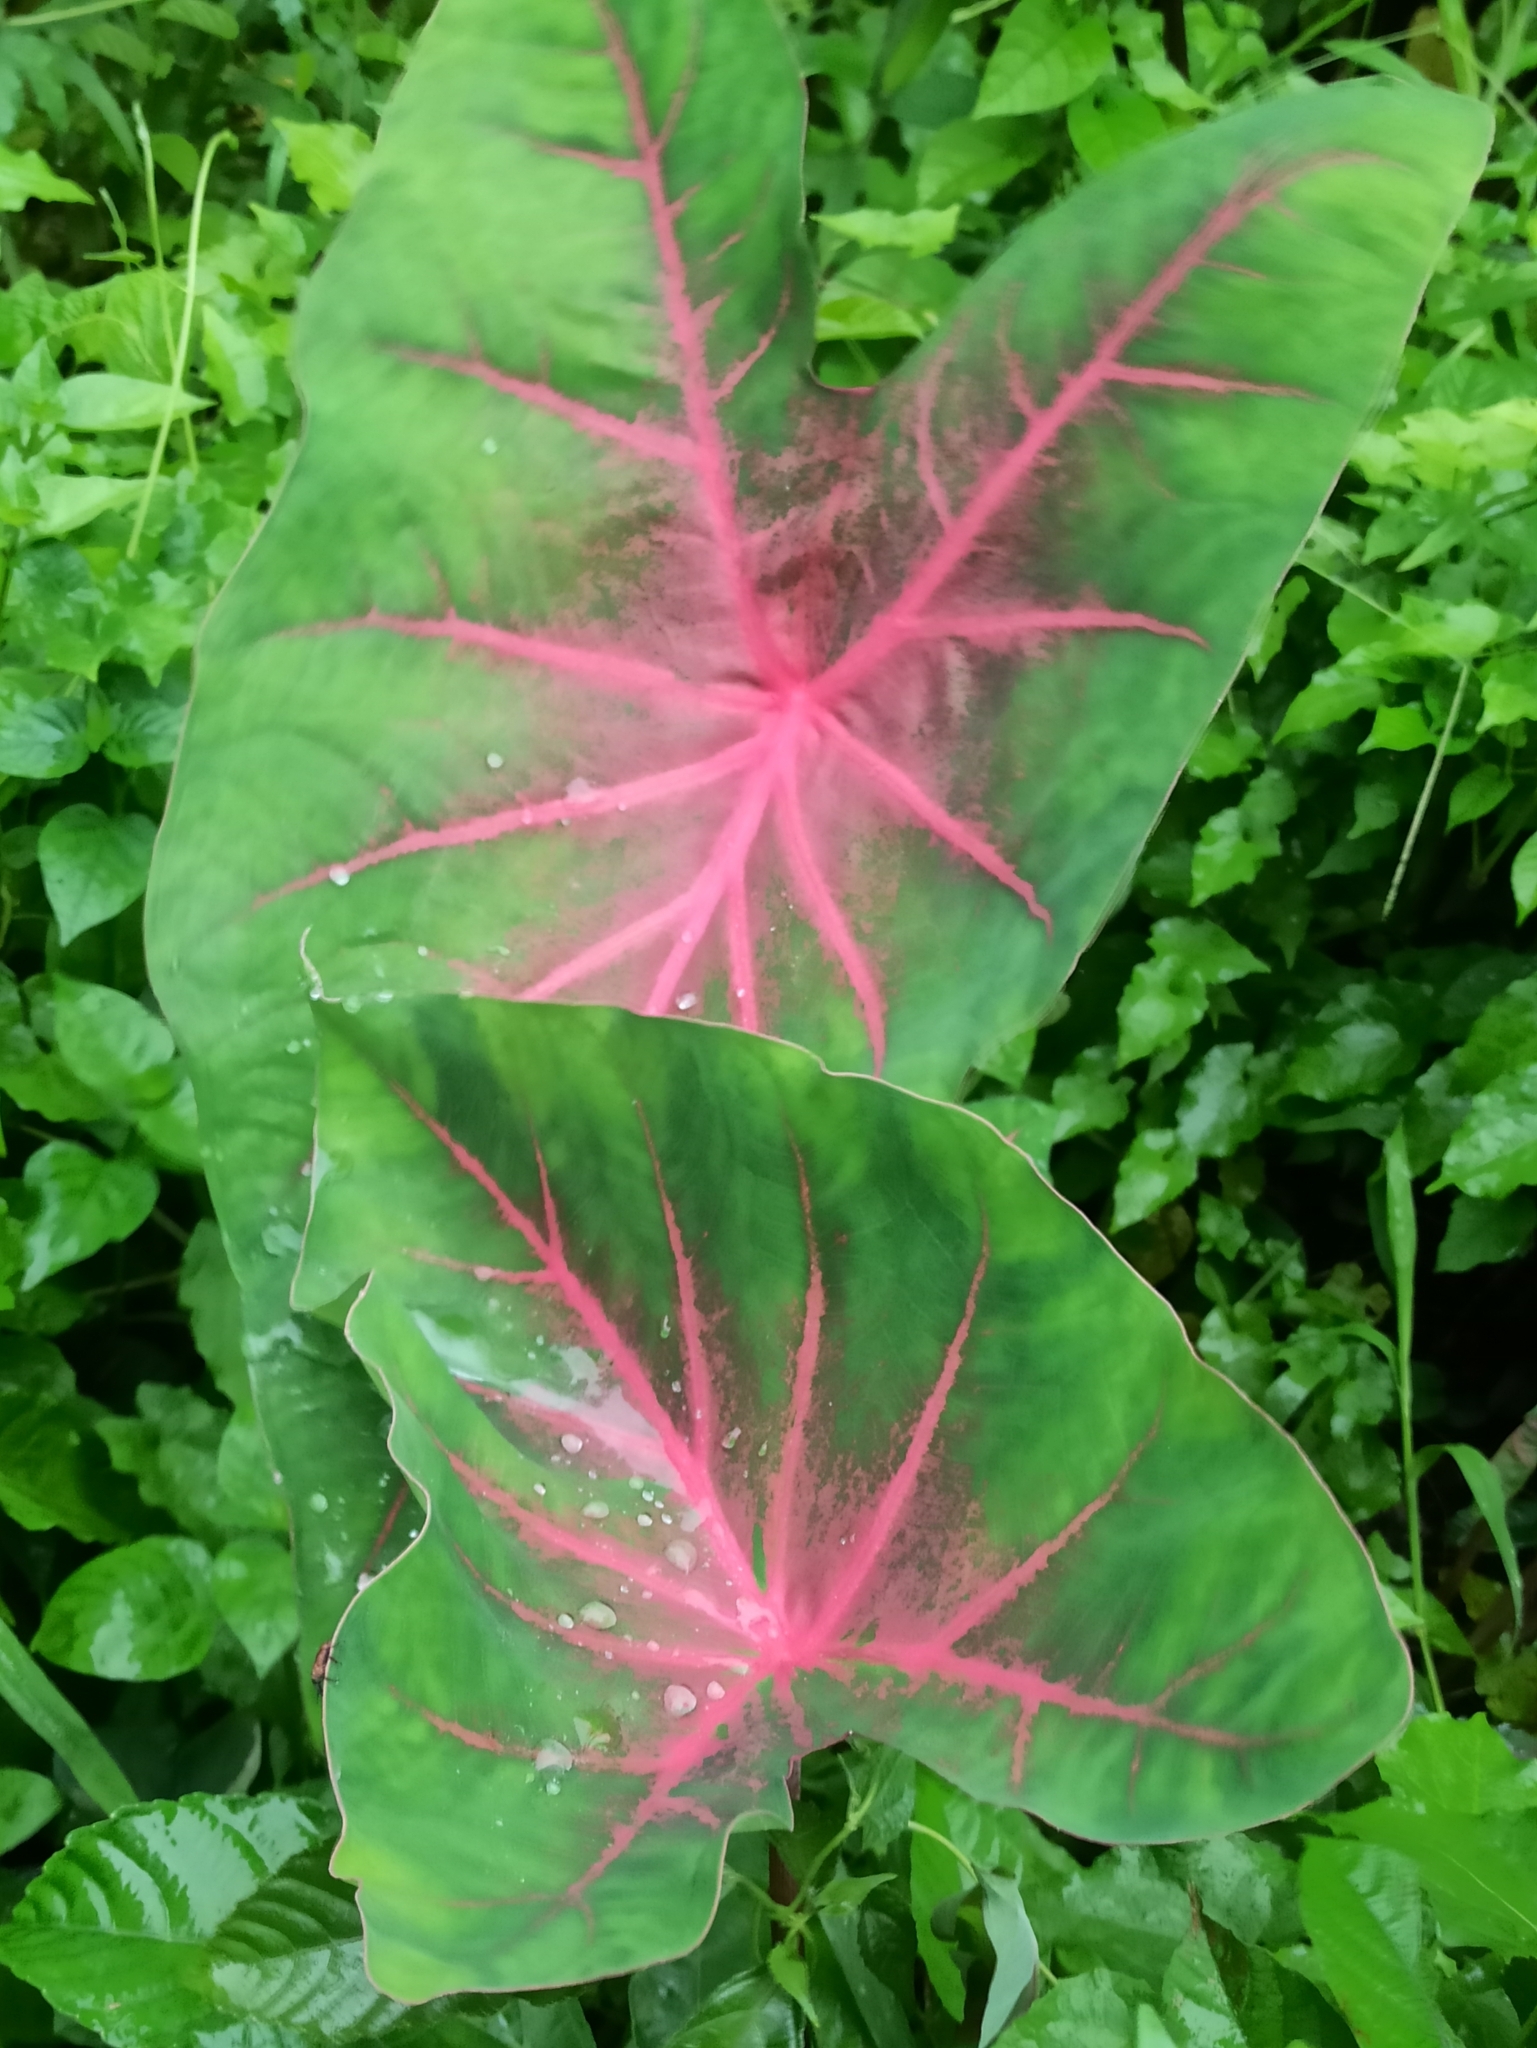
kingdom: Plantae
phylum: Tracheophyta
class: Liliopsida
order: Alismatales
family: Araceae
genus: Caladium
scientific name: Caladium bicolor
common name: Artist's pallet
